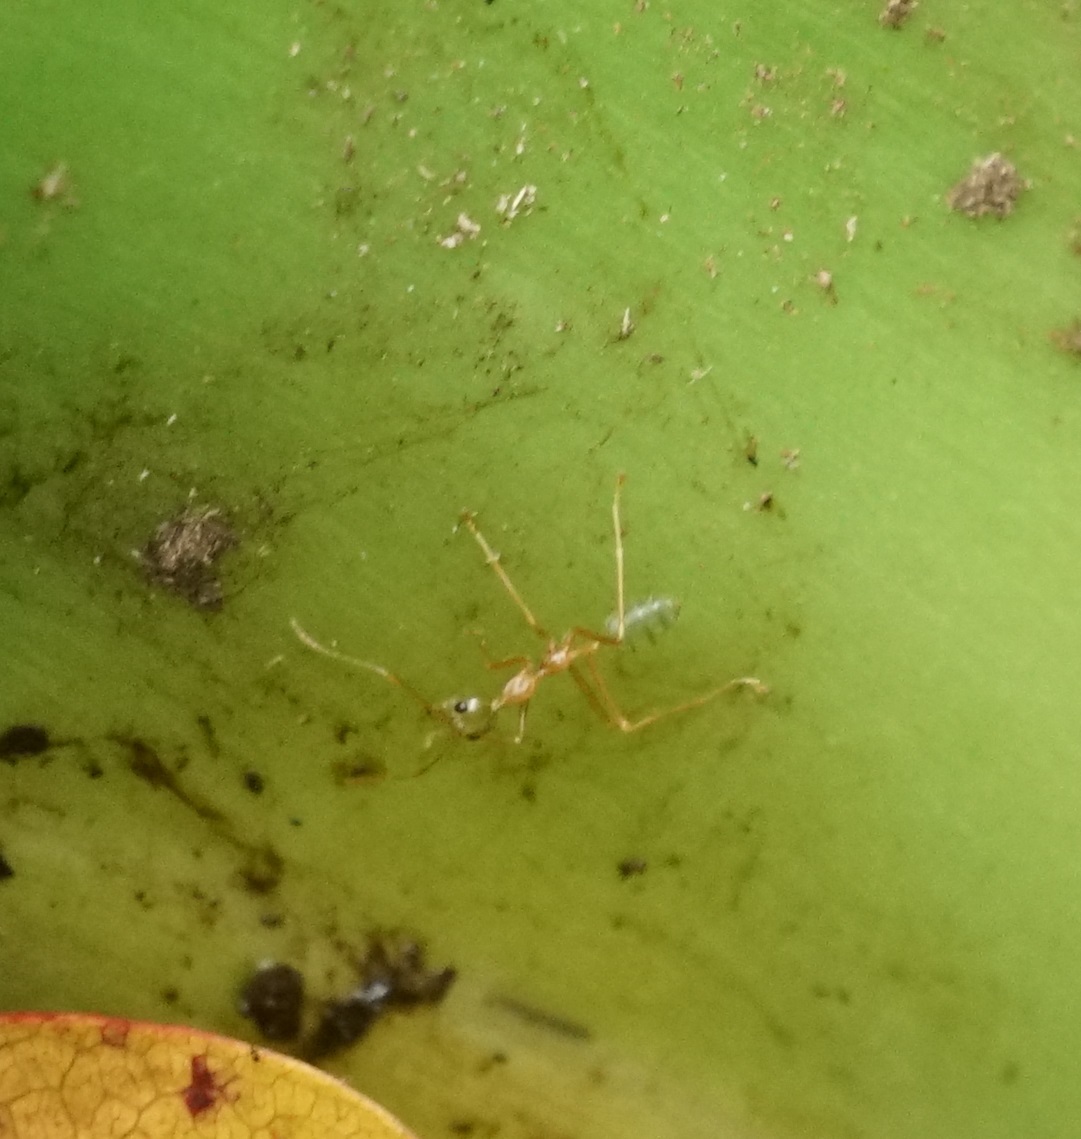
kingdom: Animalia
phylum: Arthropoda
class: Insecta
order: Hymenoptera
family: Formicidae
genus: Oecophylla
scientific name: Oecophylla smaragdina
